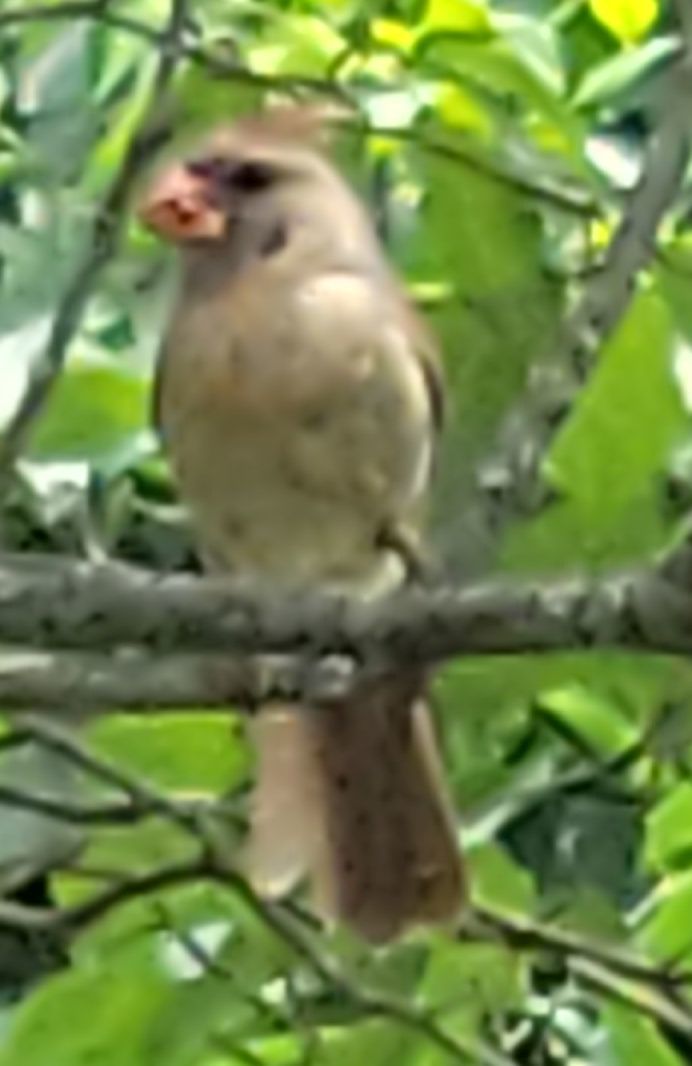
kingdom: Animalia
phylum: Chordata
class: Aves
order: Passeriformes
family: Cardinalidae
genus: Cardinalis
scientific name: Cardinalis cardinalis
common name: Northern cardinal
